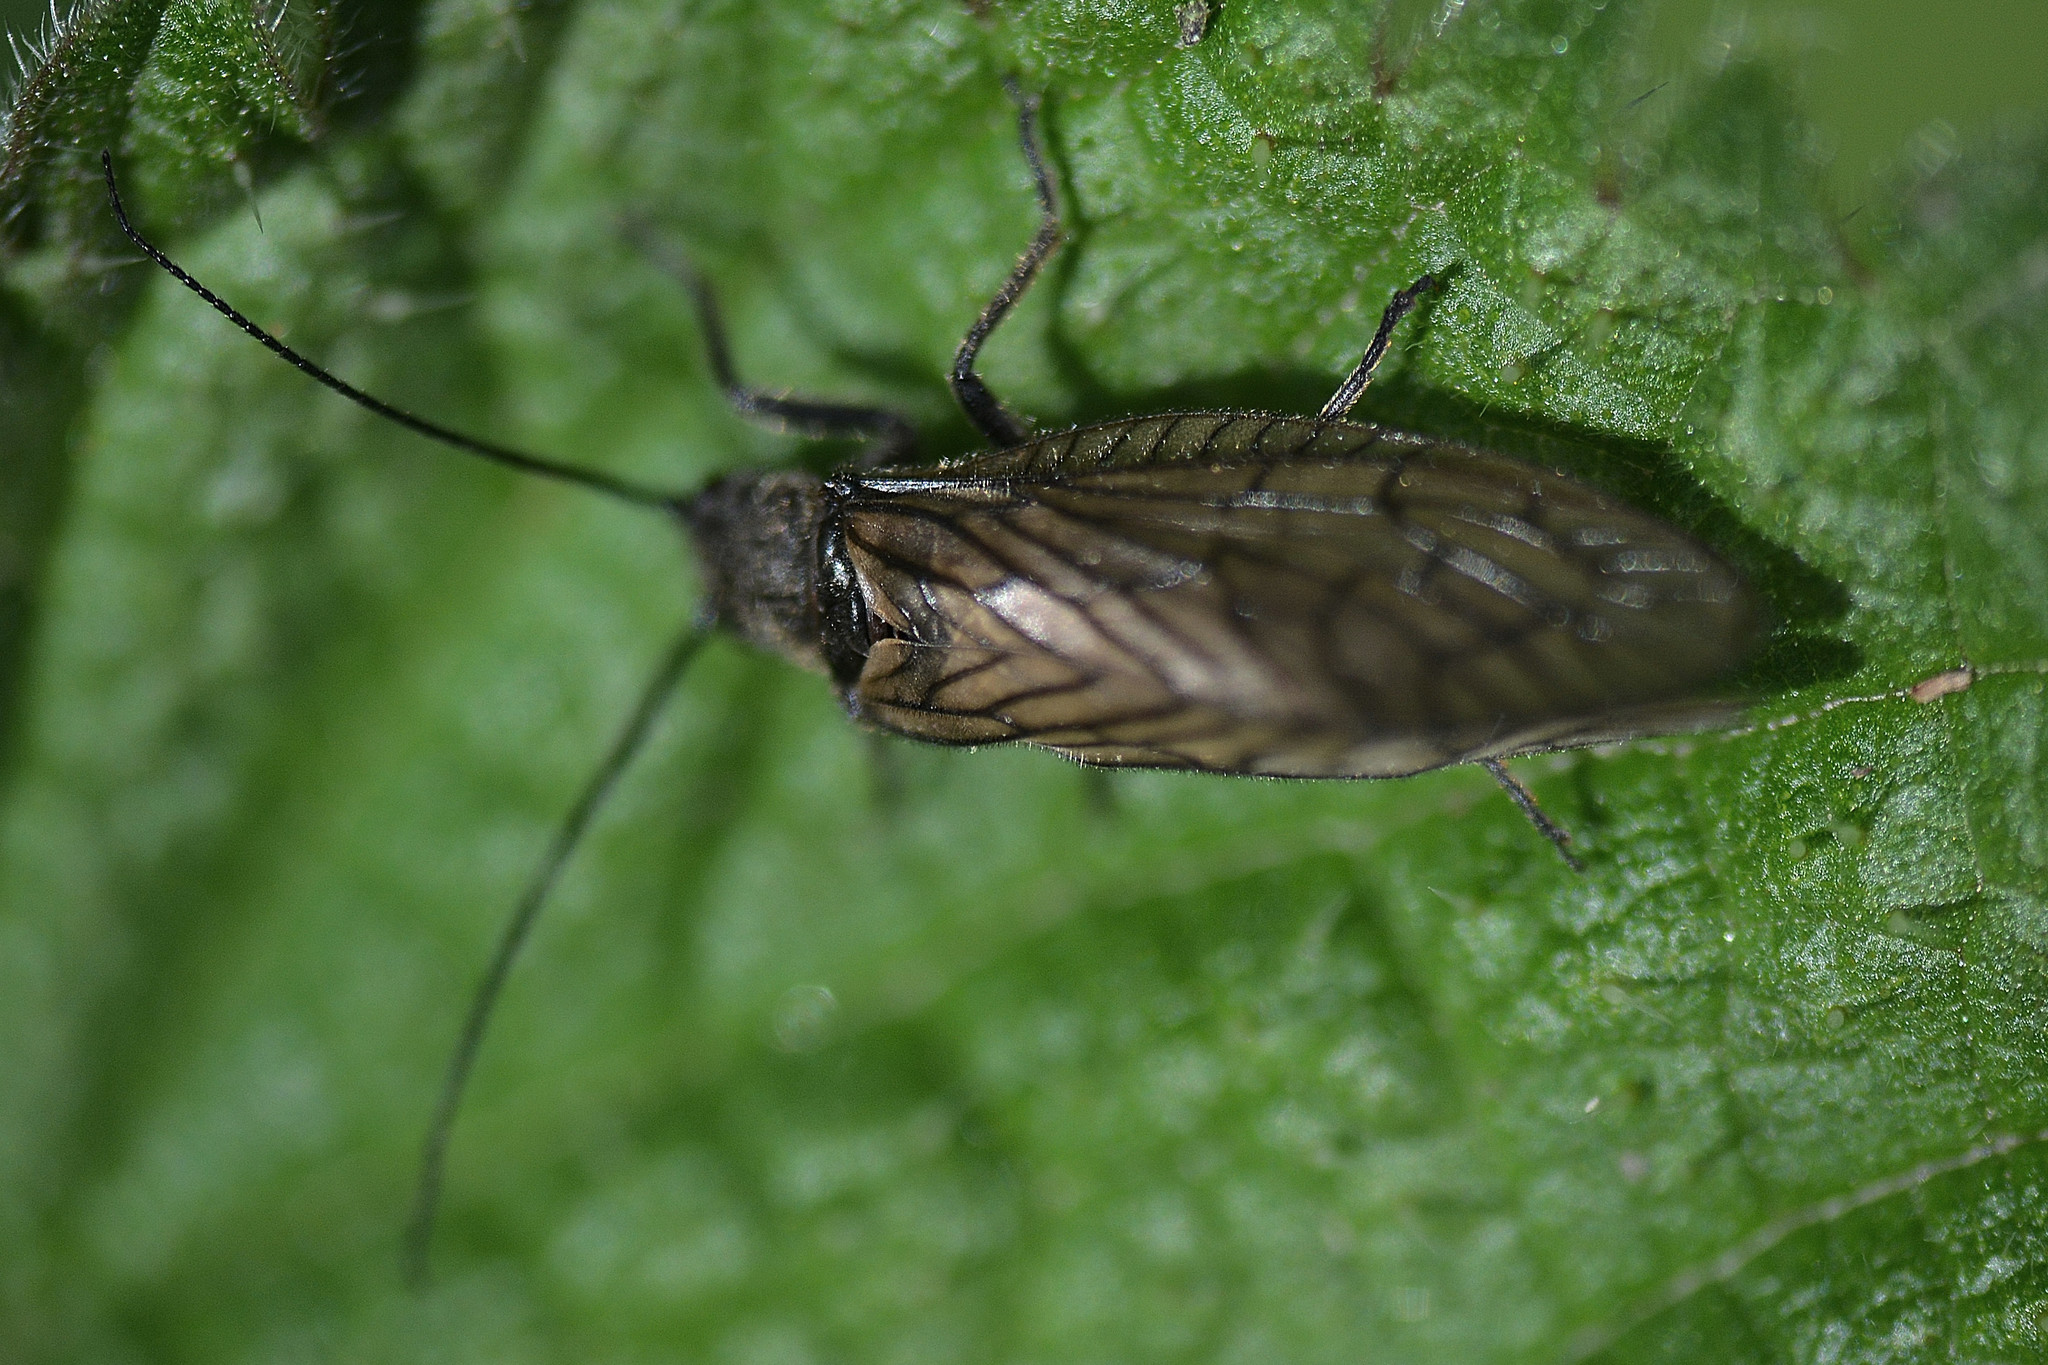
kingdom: Animalia
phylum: Arthropoda
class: Insecta
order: Megaloptera
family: Sialidae
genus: Sialis
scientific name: Sialis
